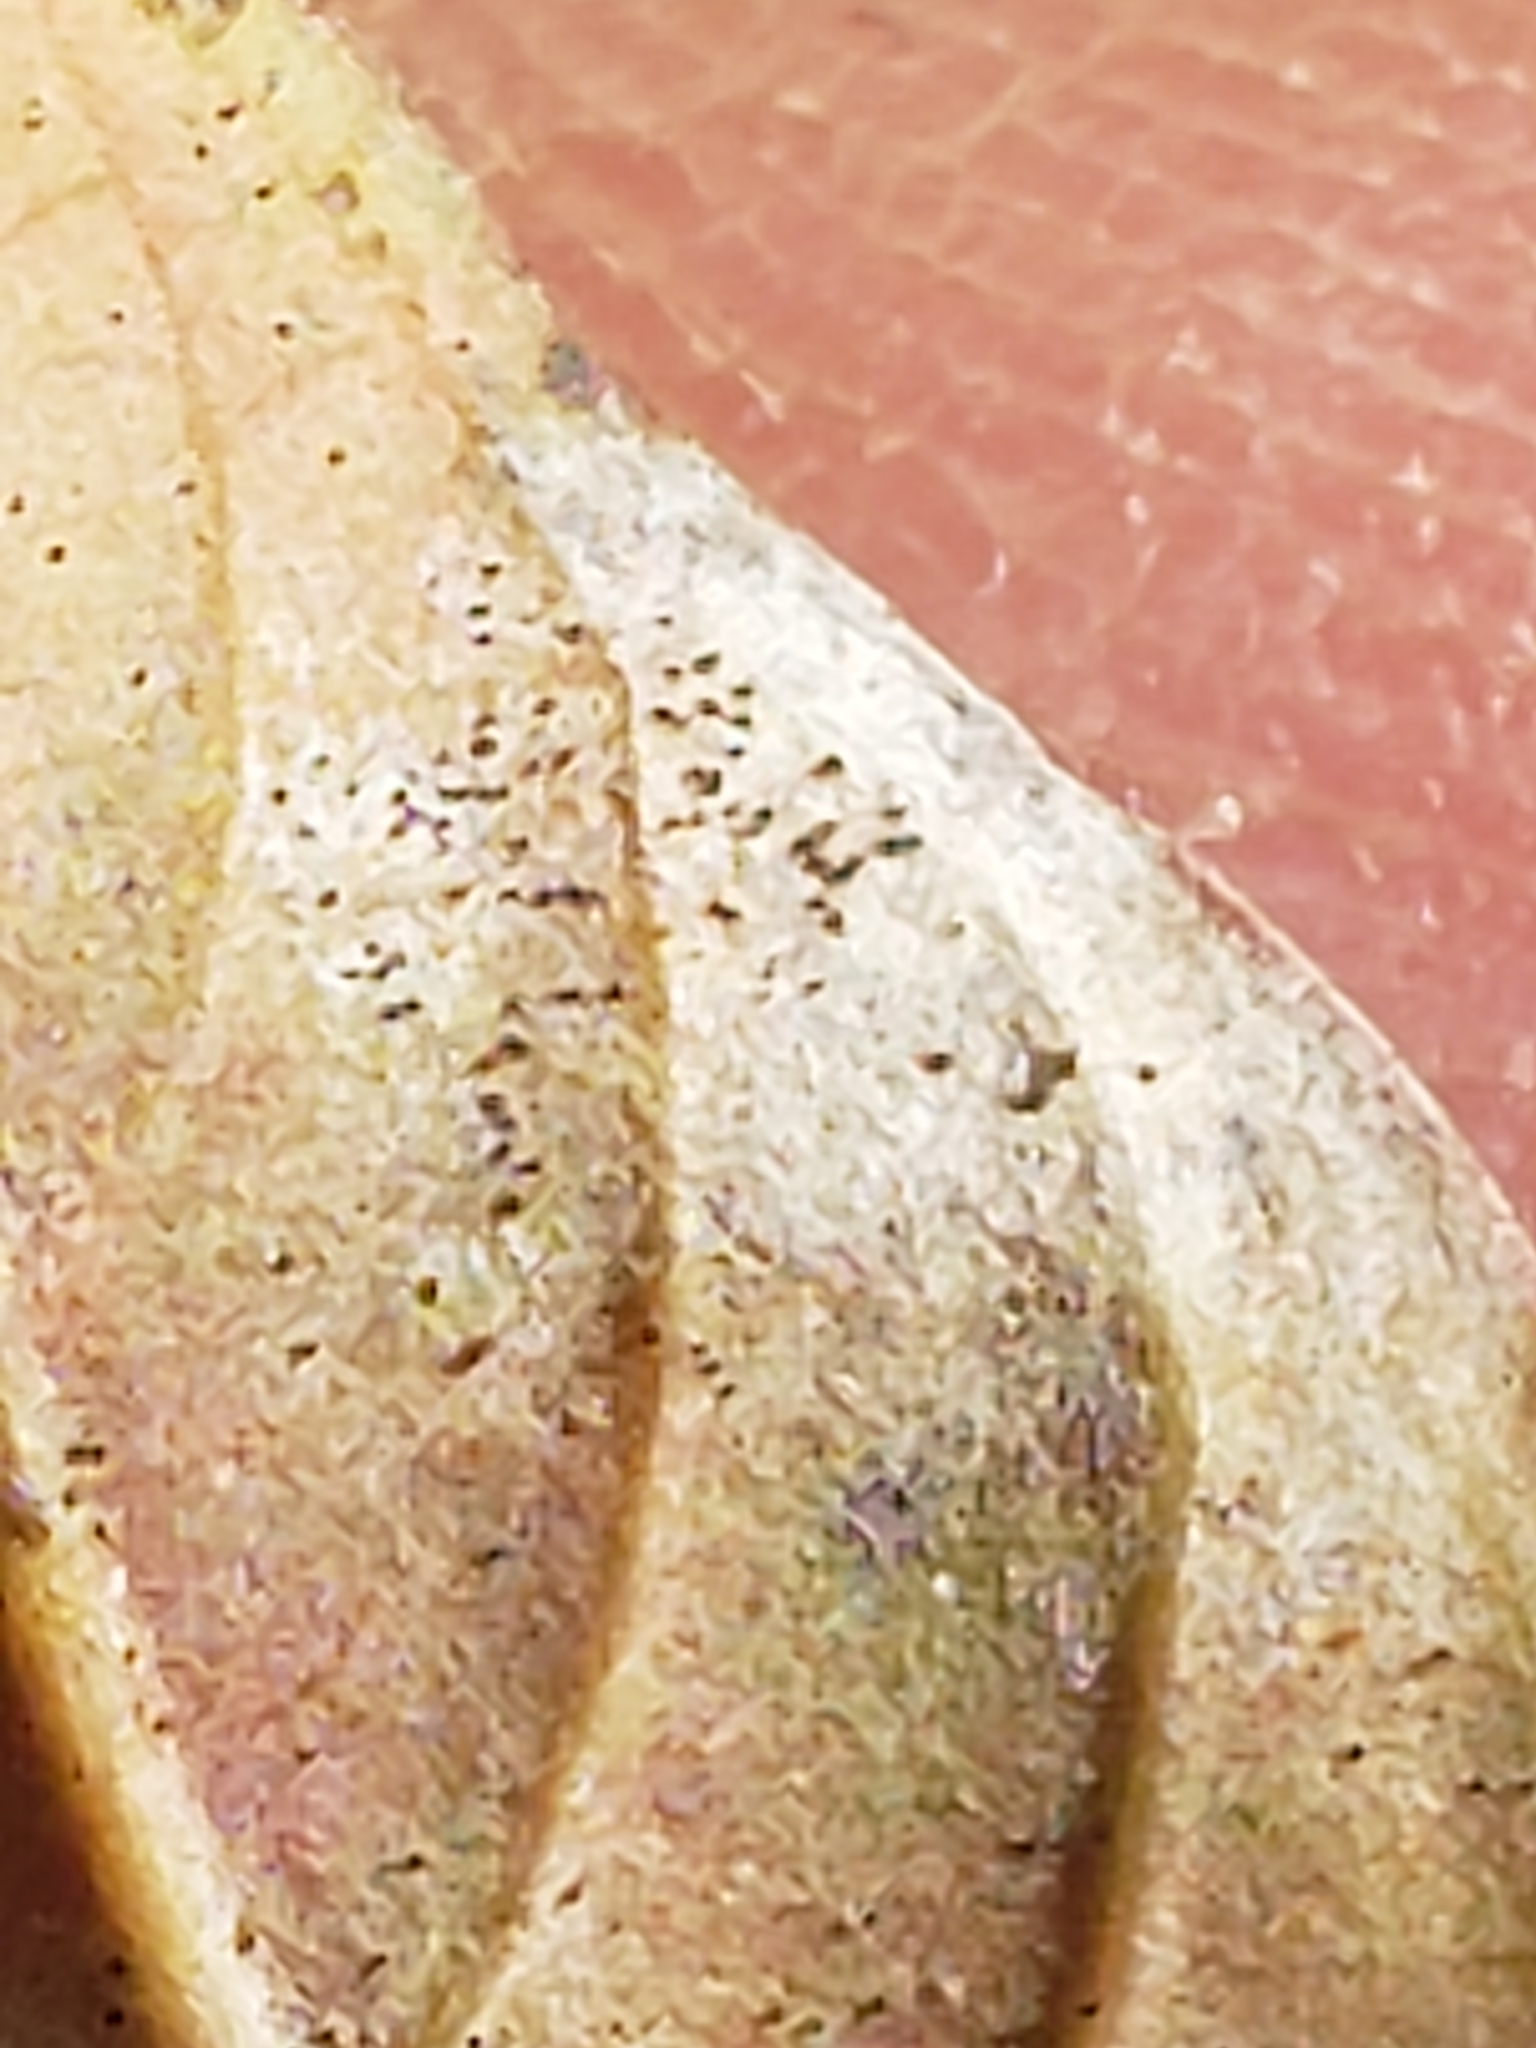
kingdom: Fungi
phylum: Ascomycota
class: Leotiomycetes
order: Helotiales
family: Erysiphaceae
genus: Erysiphe
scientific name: Erysiphe australiana
